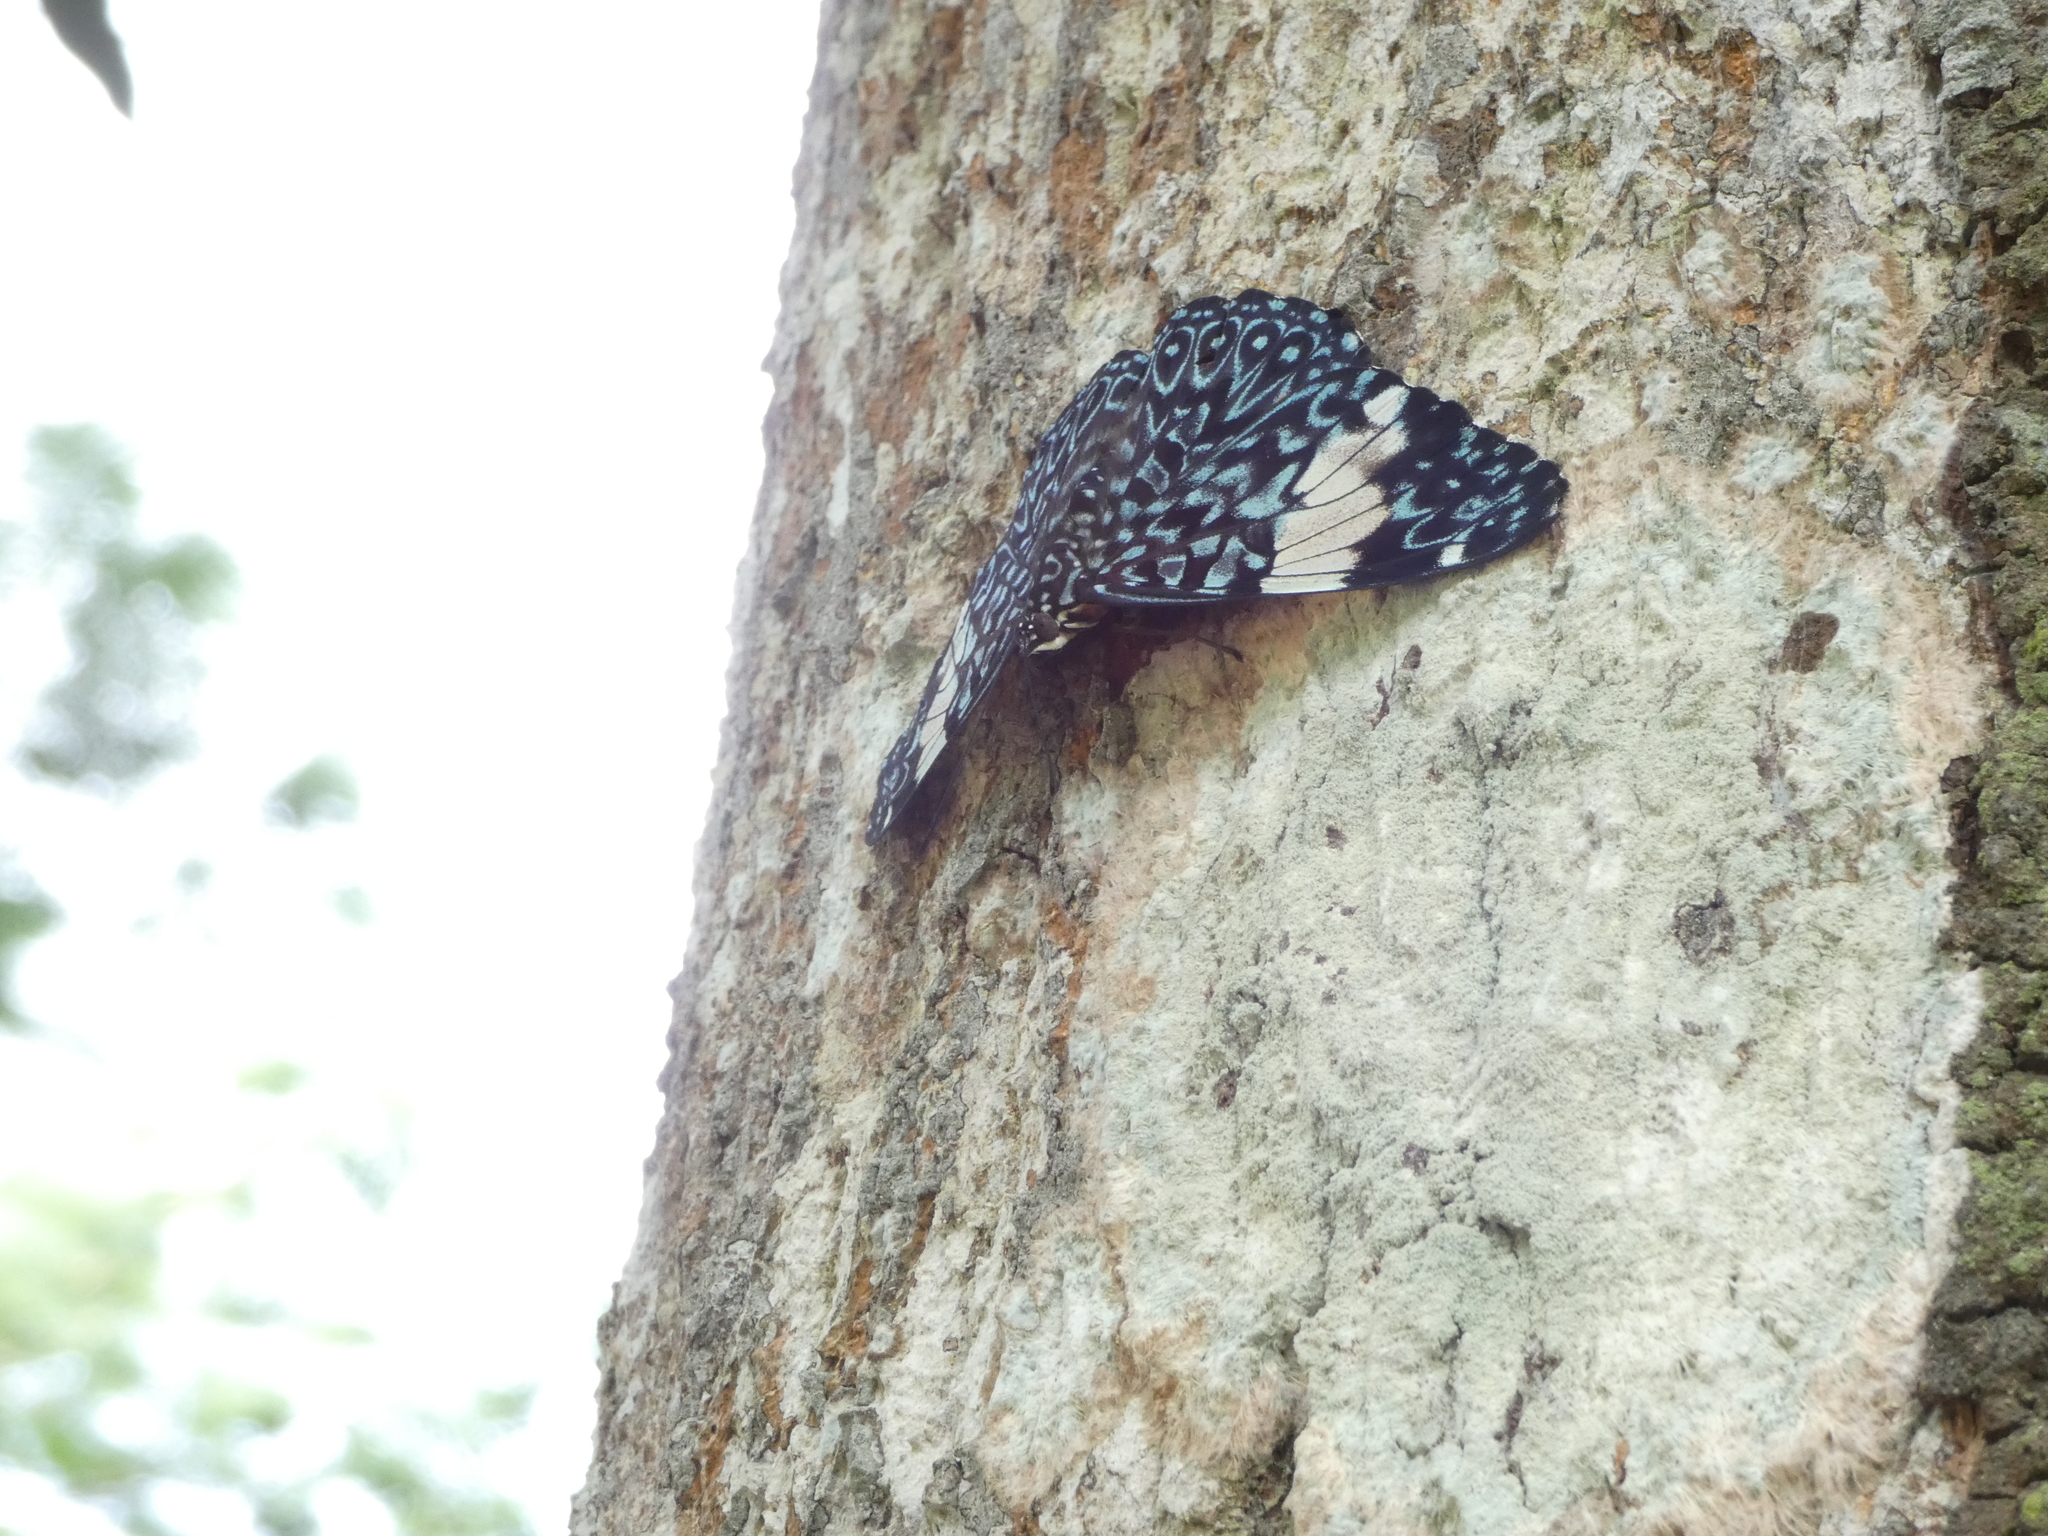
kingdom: Animalia
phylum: Arthropoda
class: Insecta
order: Lepidoptera
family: Nymphalidae
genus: Hamadryas
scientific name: Hamadryas amphinome
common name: Red cracker
